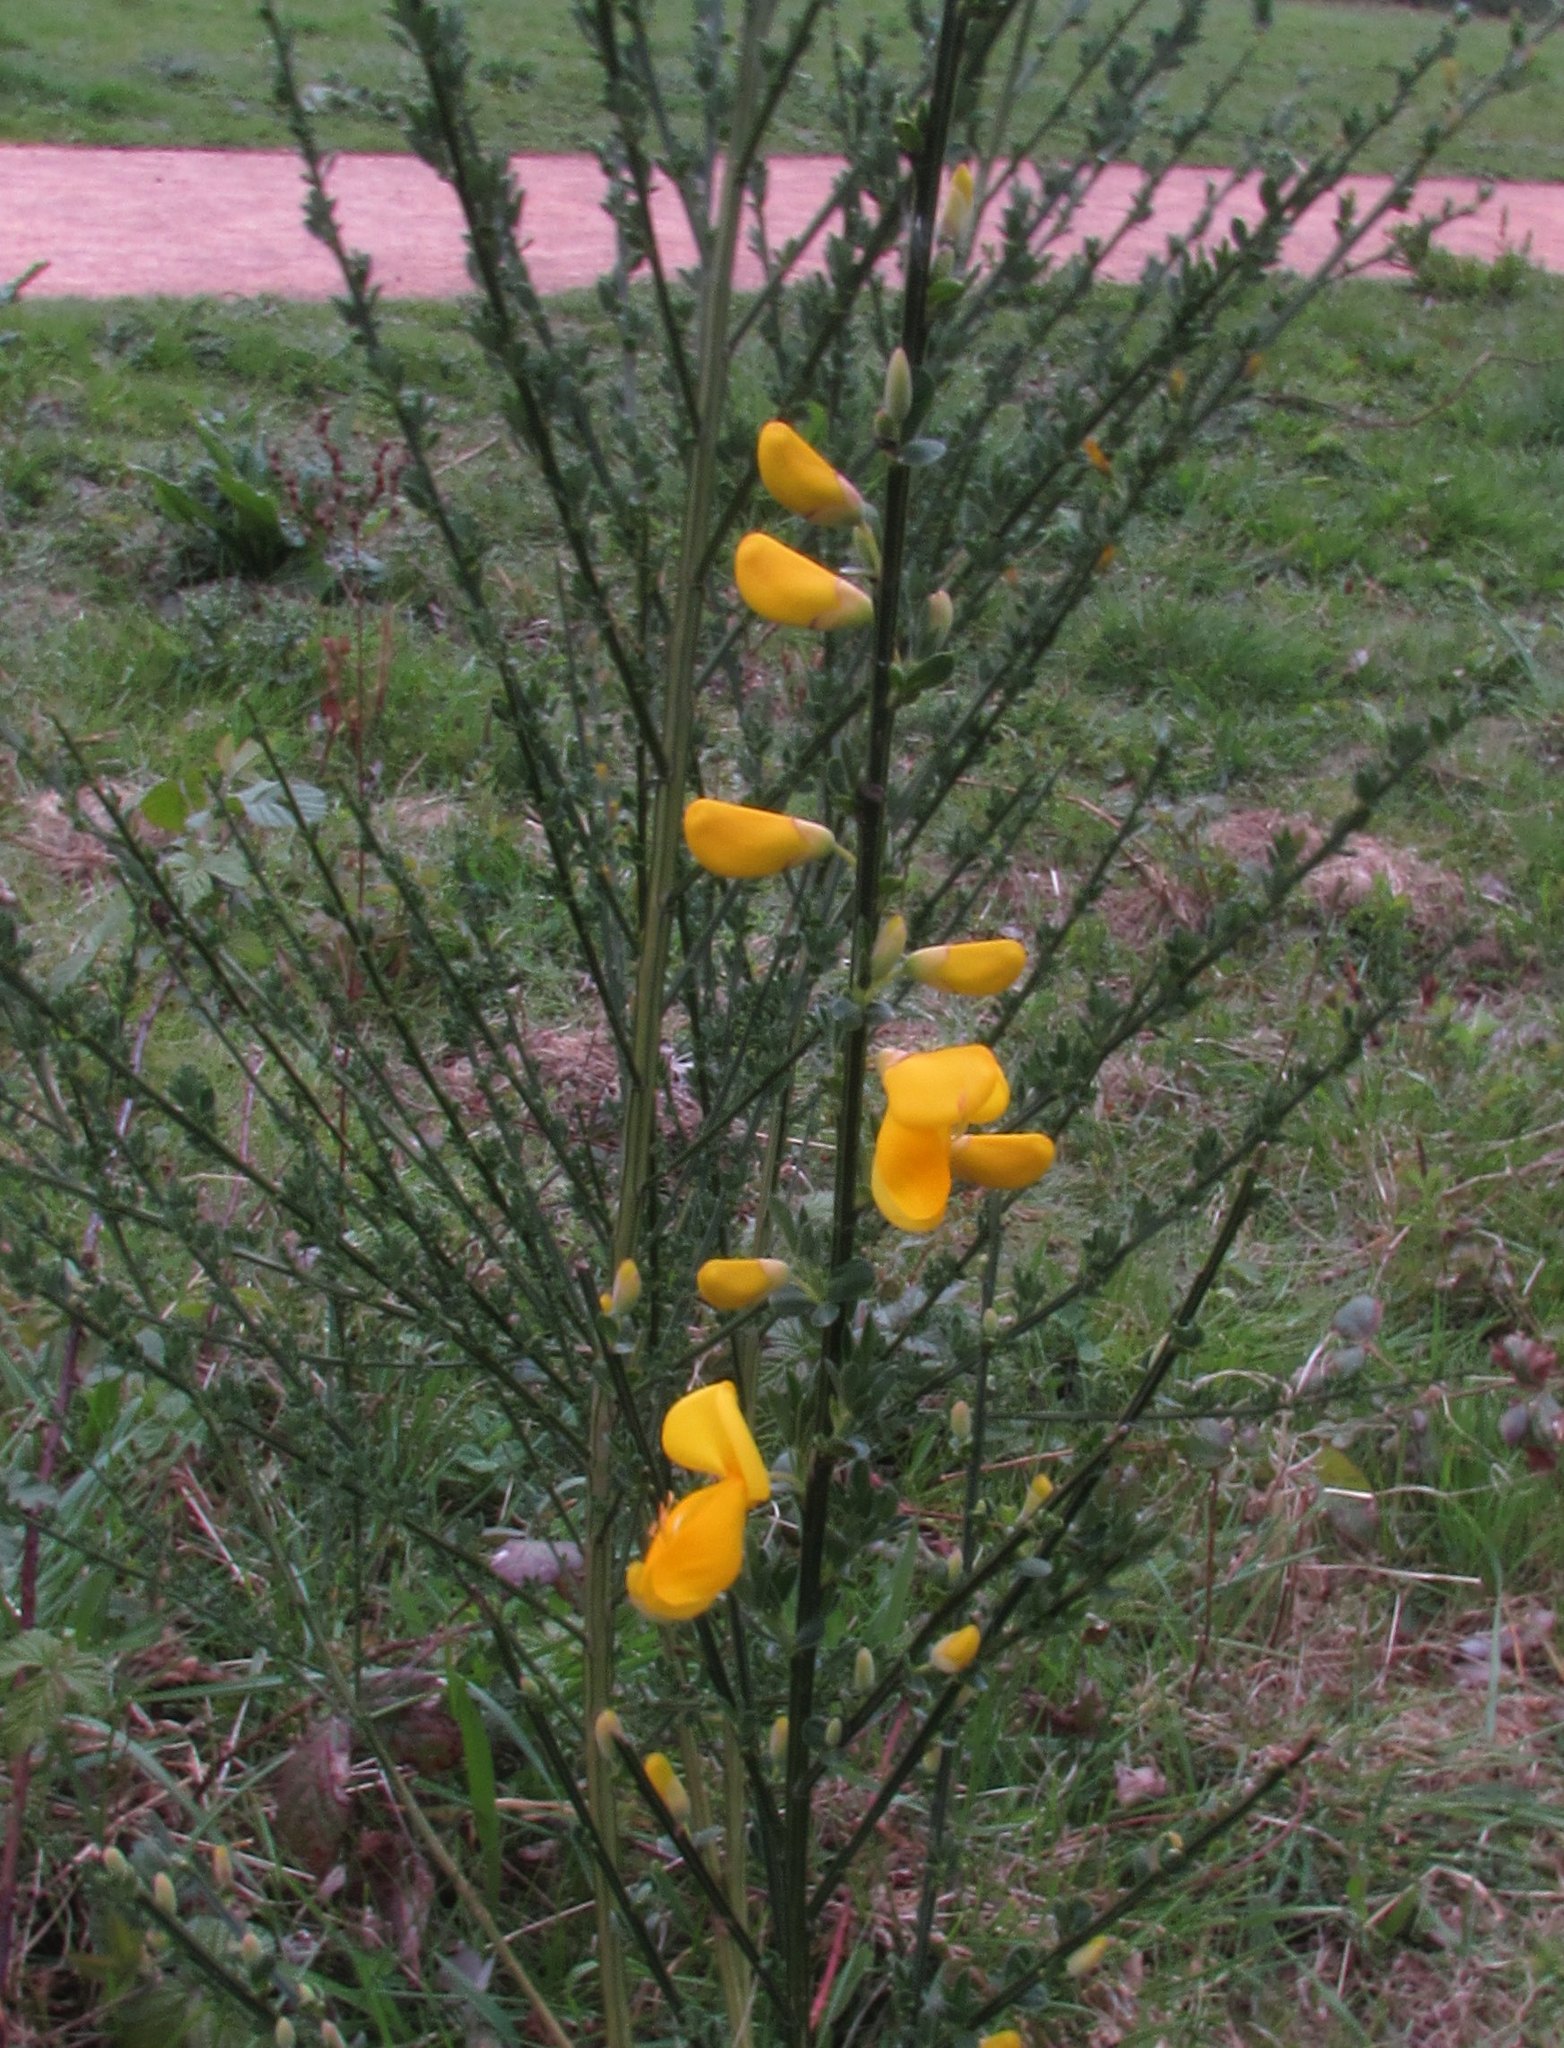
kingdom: Plantae
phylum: Tracheophyta
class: Magnoliopsida
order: Fabales
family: Fabaceae
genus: Cytisus
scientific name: Cytisus scoparius
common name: Scotch broom
